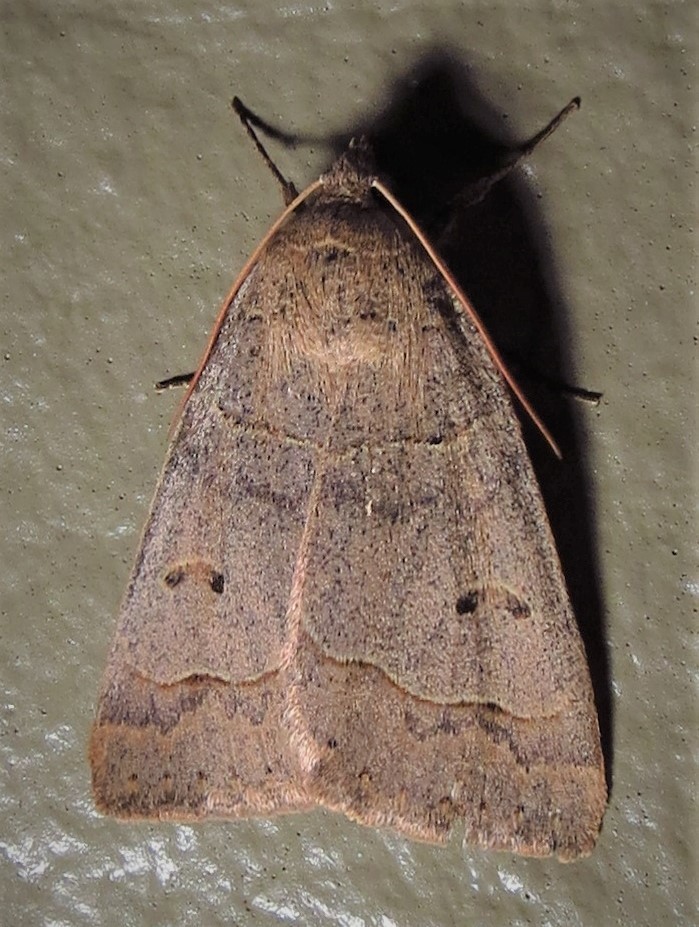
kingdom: Animalia
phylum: Arthropoda
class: Insecta
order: Lepidoptera
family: Erebidae
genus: Phoberia
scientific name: Phoberia atomaris
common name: Common oak moth
